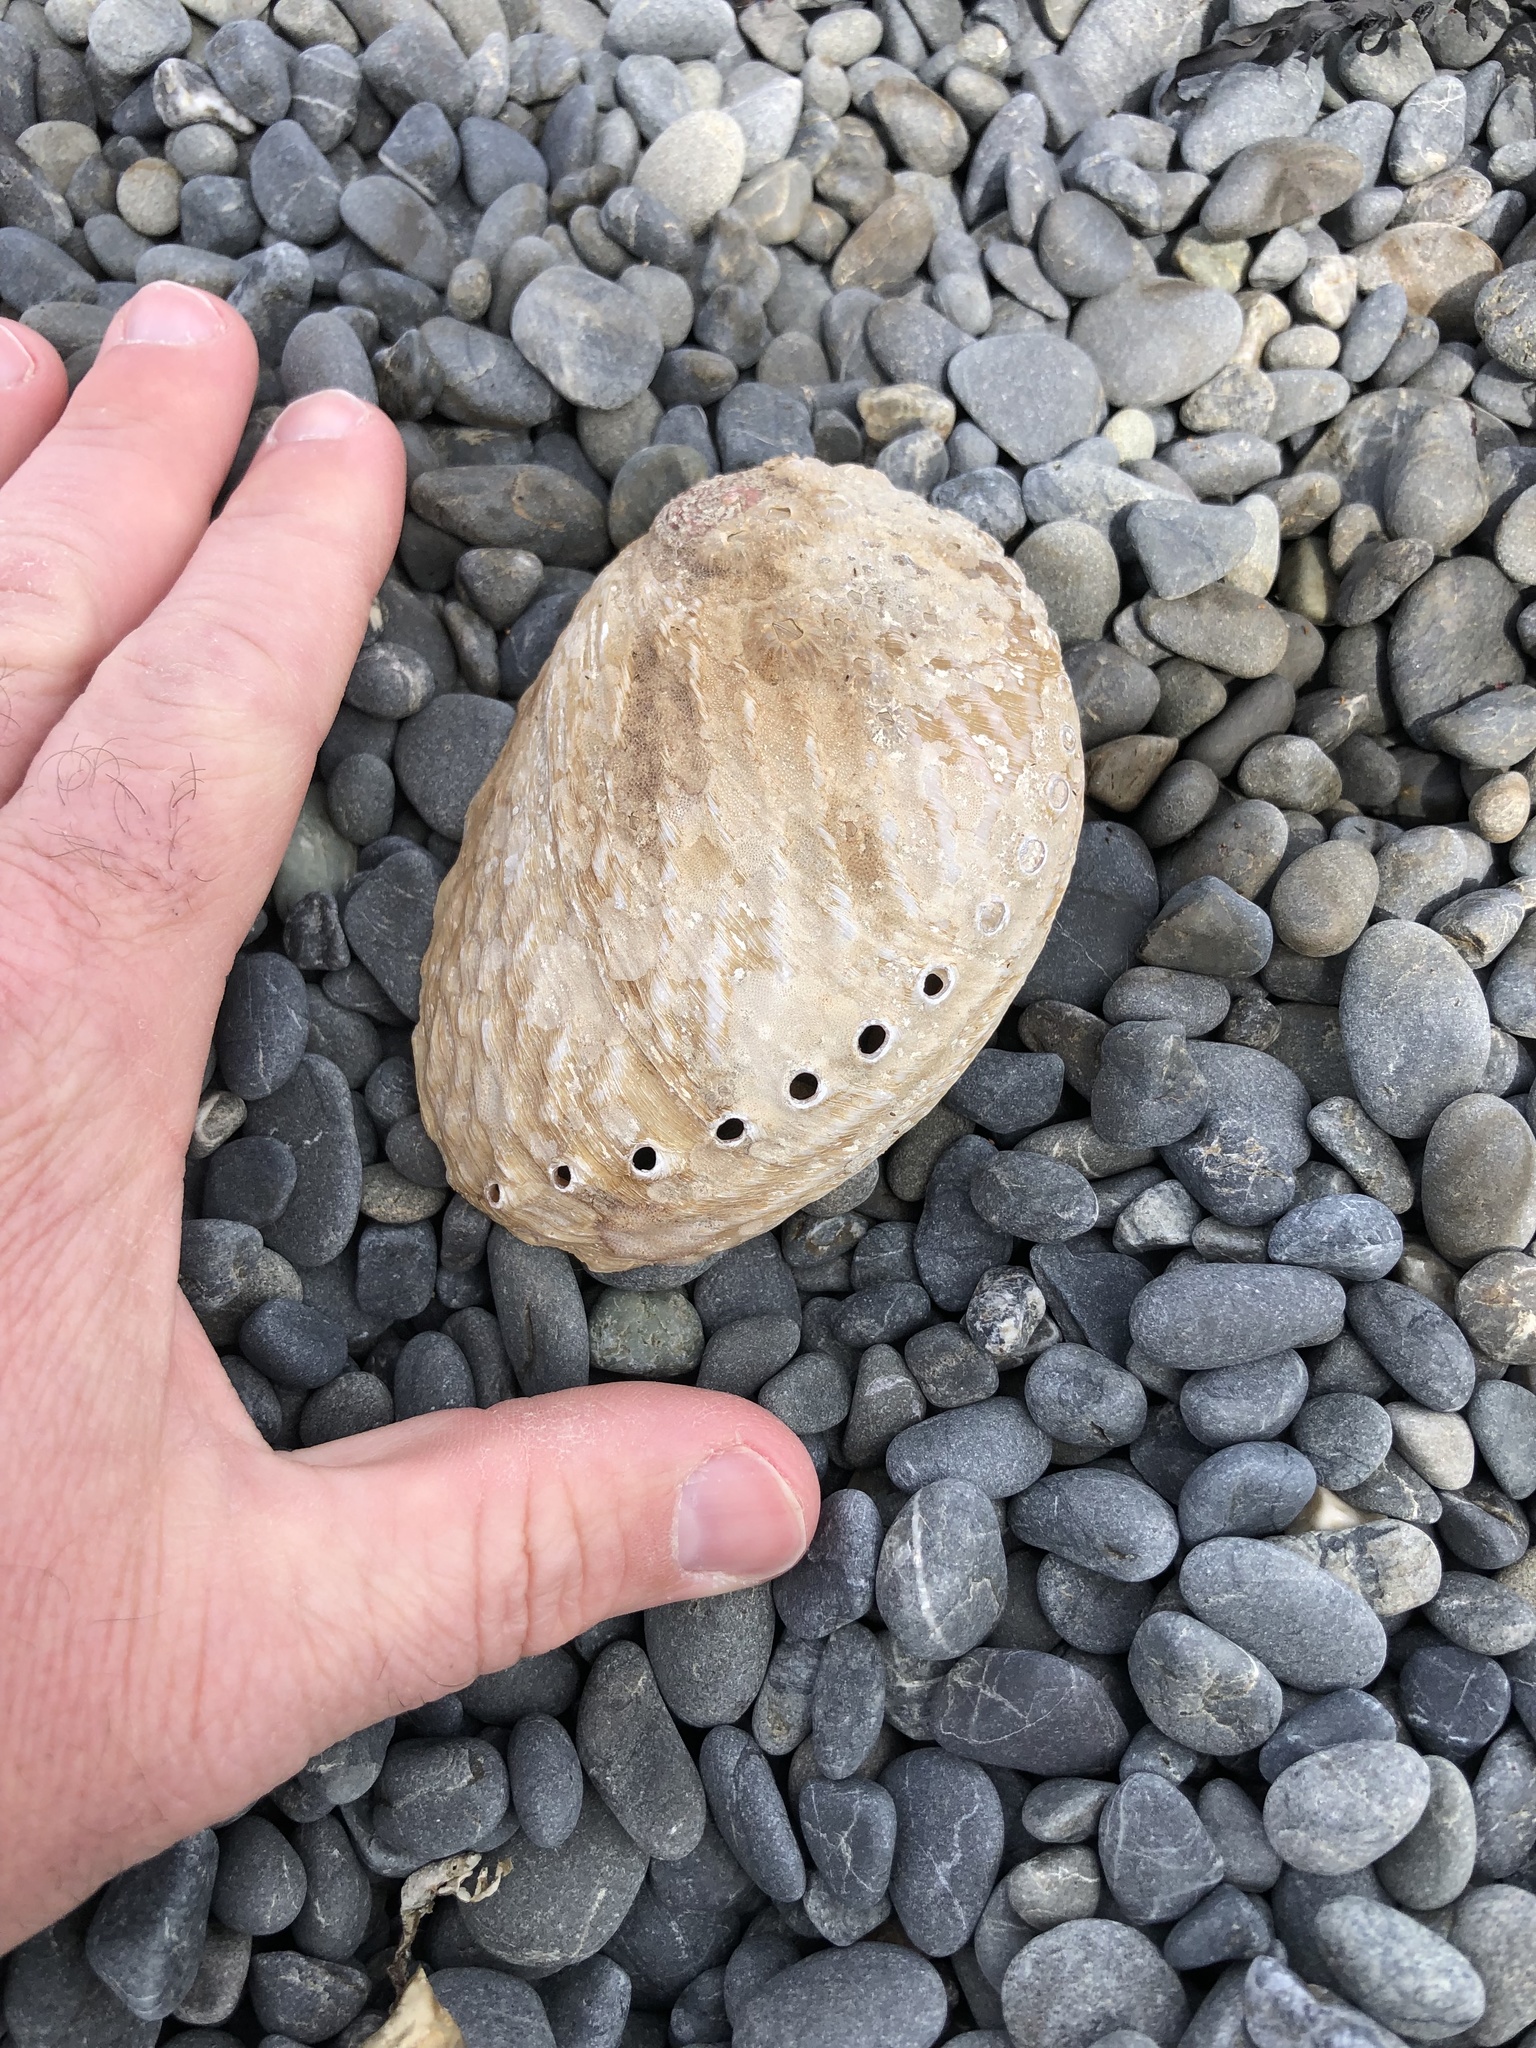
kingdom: Animalia
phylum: Mollusca
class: Gastropoda
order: Lepetellida
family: Haliotidae
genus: Haliotis
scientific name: Haliotis australis
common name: Silver abalone
